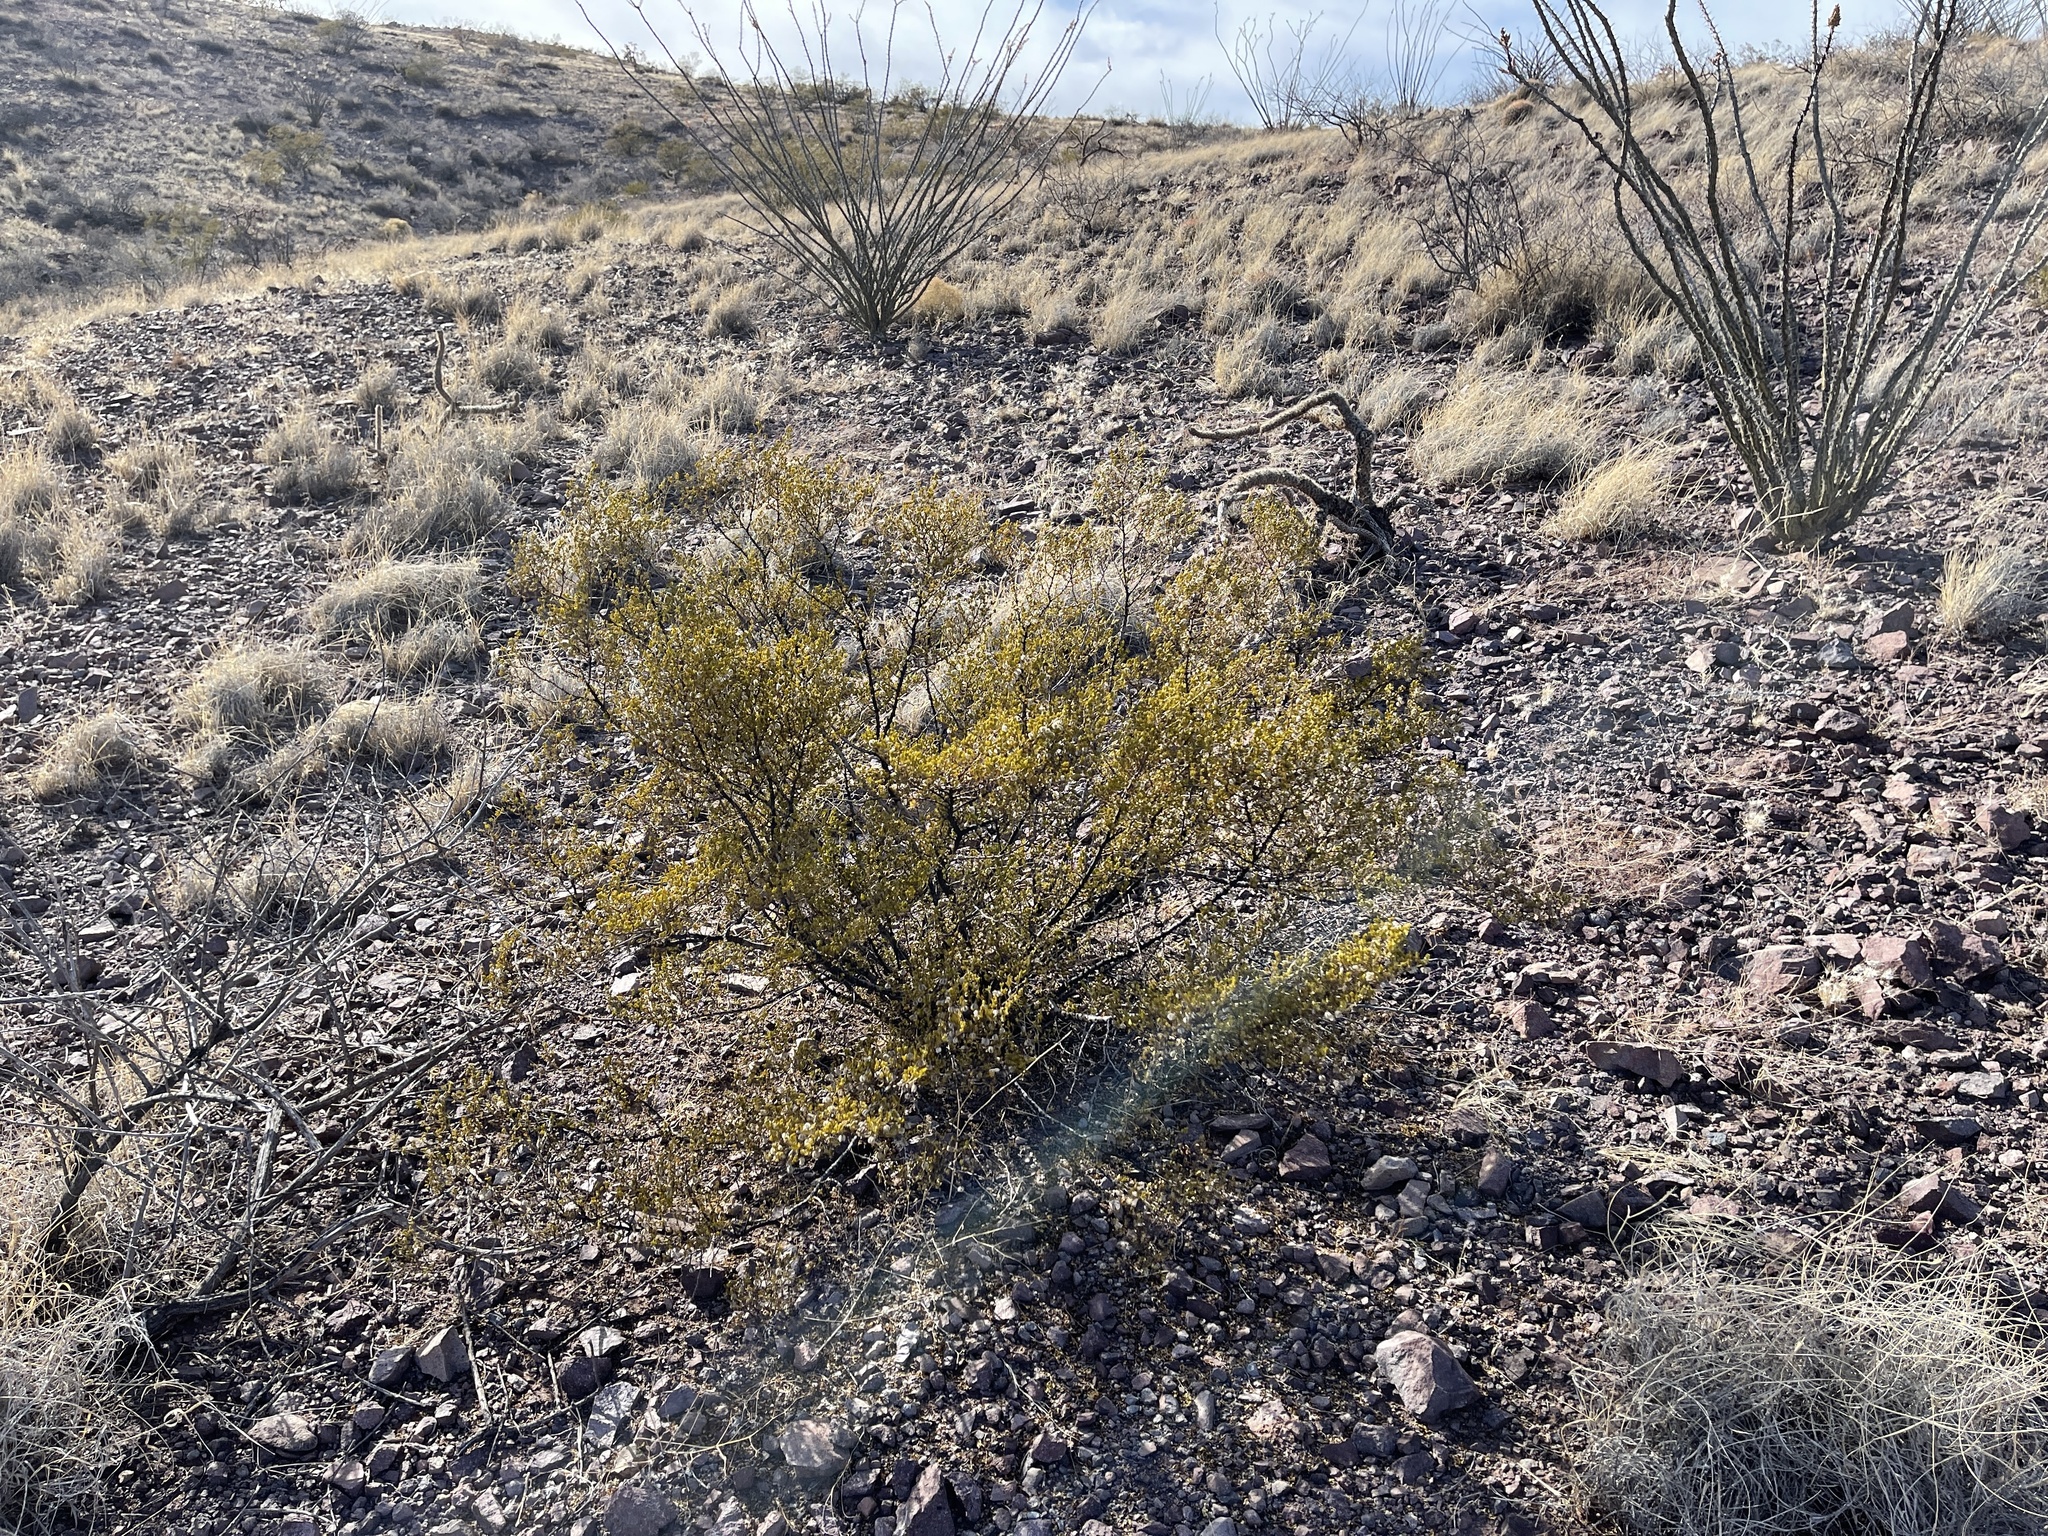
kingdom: Plantae
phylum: Tracheophyta
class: Magnoliopsida
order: Zygophyllales
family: Zygophyllaceae
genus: Larrea
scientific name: Larrea tridentata
